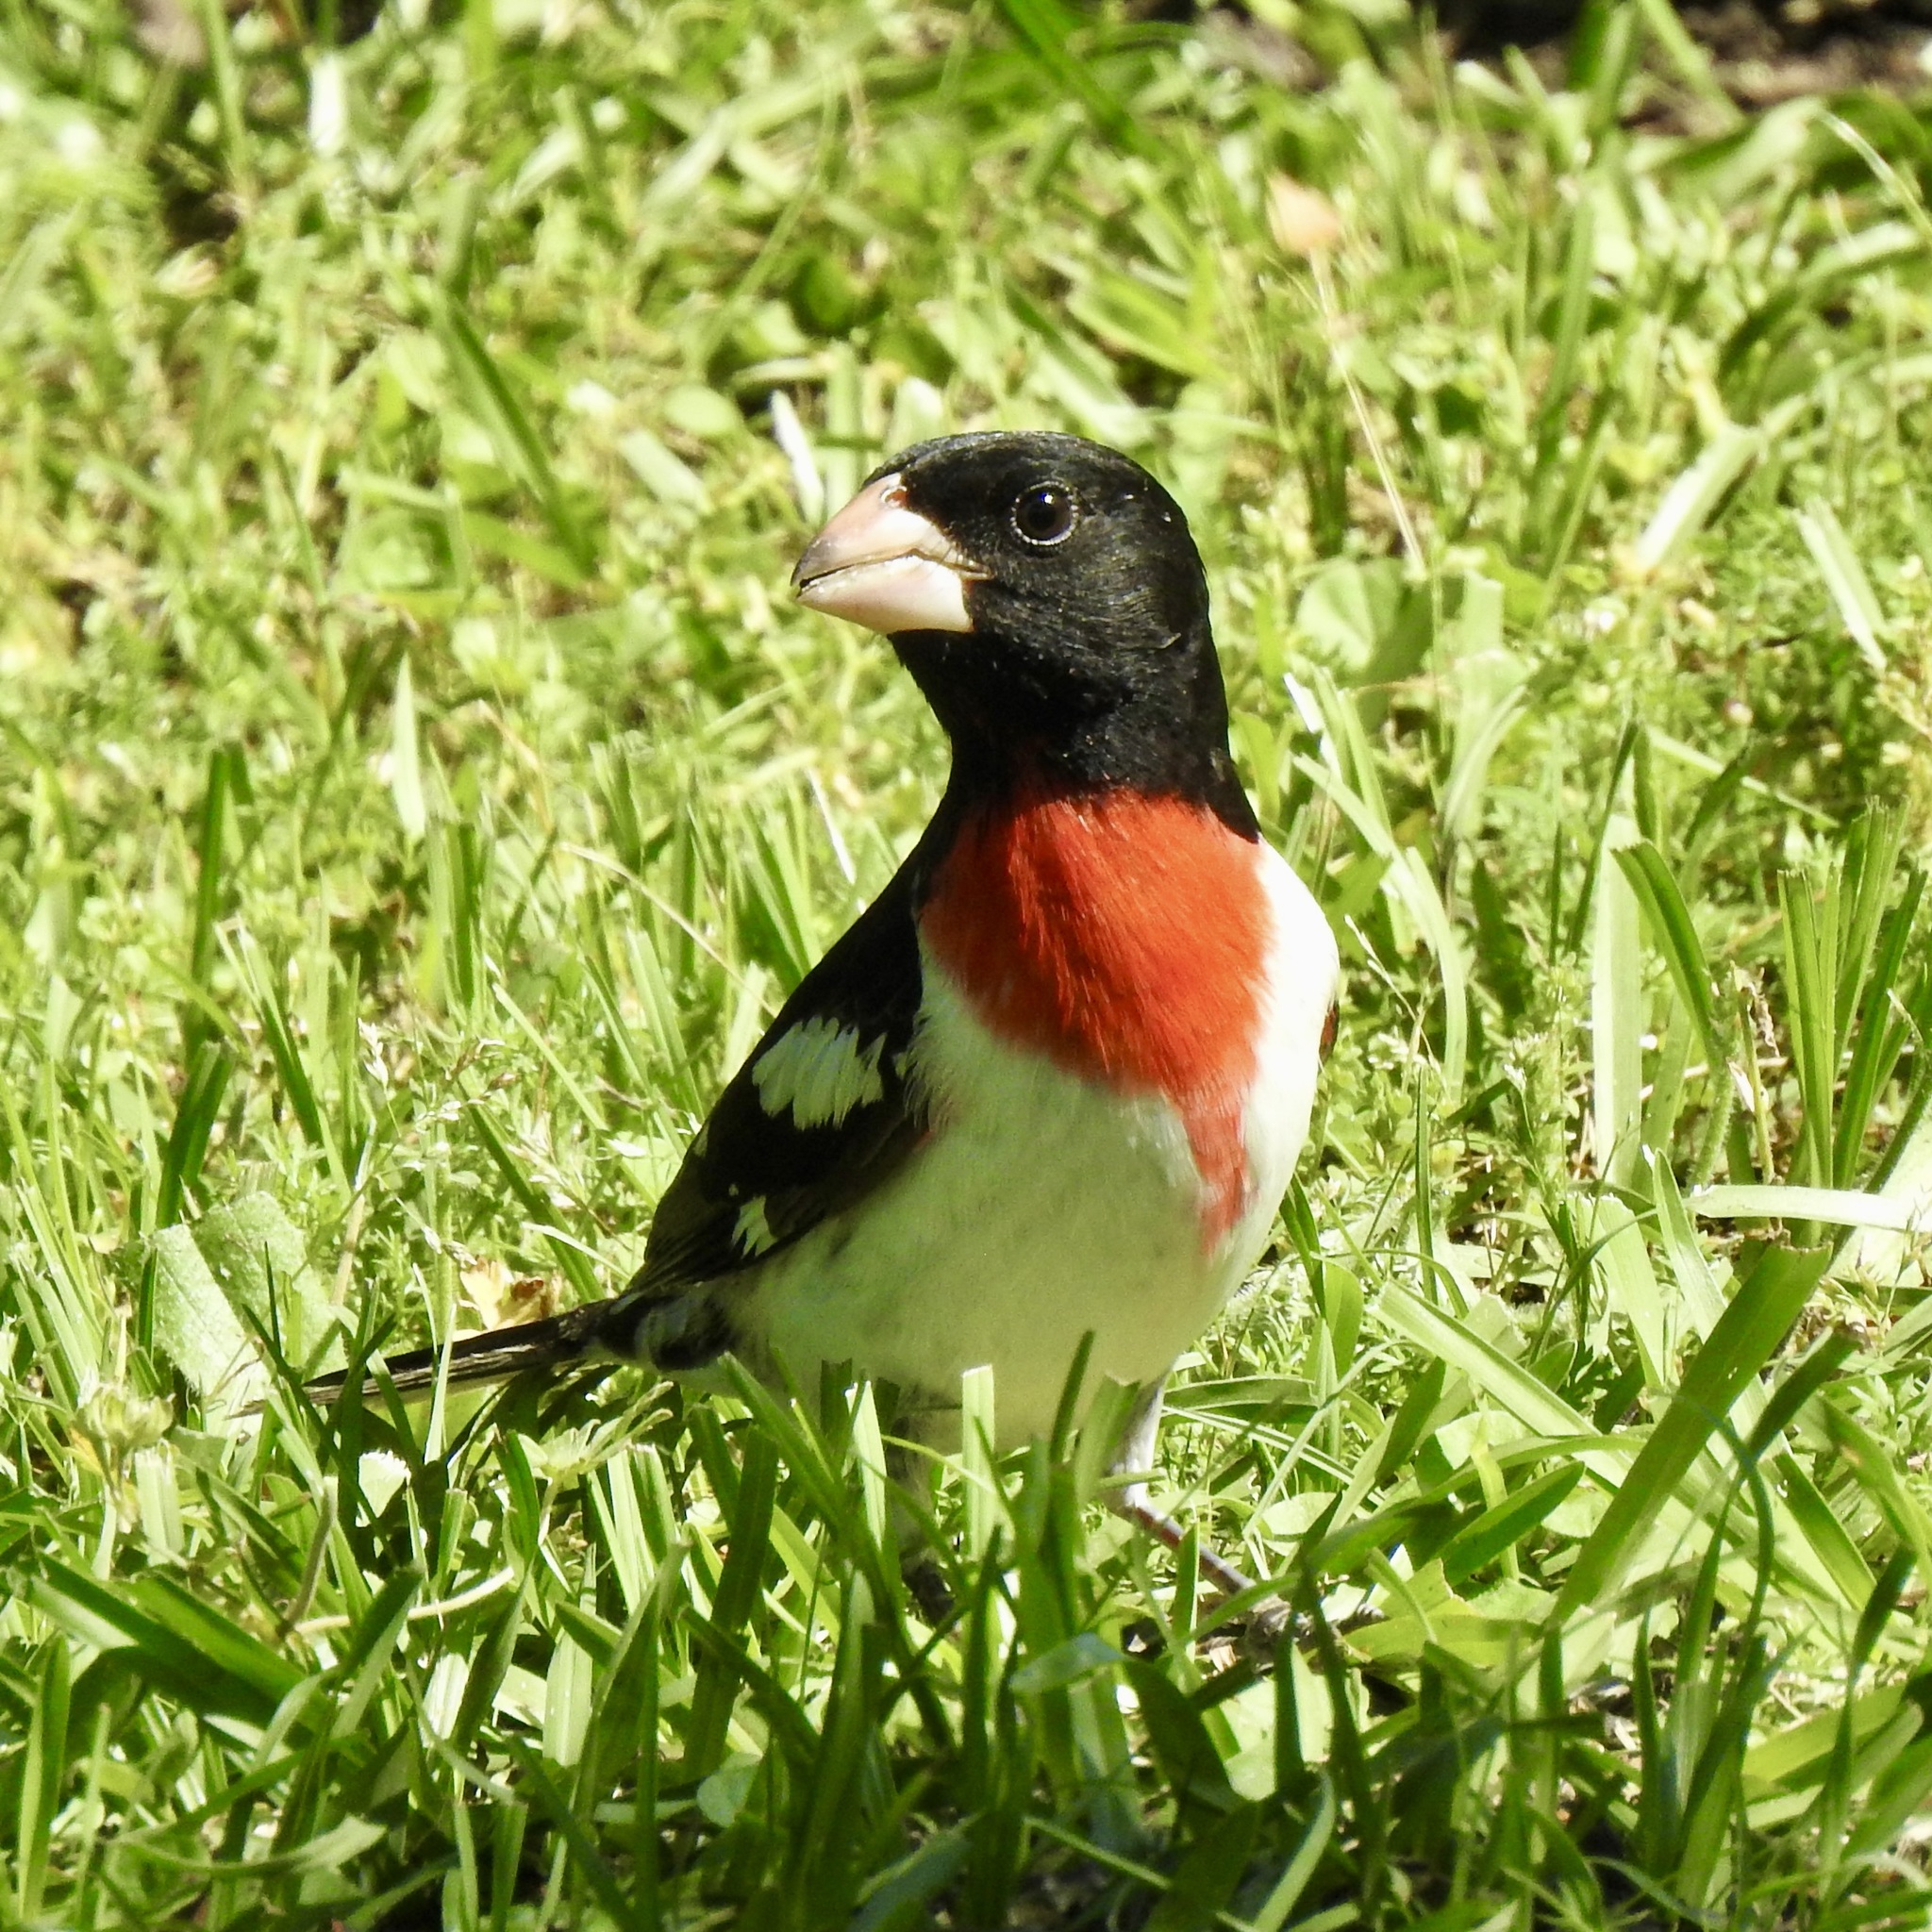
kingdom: Animalia
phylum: Chordata
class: Aves
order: Passeriformes
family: Cardinalidae
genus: Pheucticus
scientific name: Pheucticus ludovicianus
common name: Rose-breasted grosbeak
